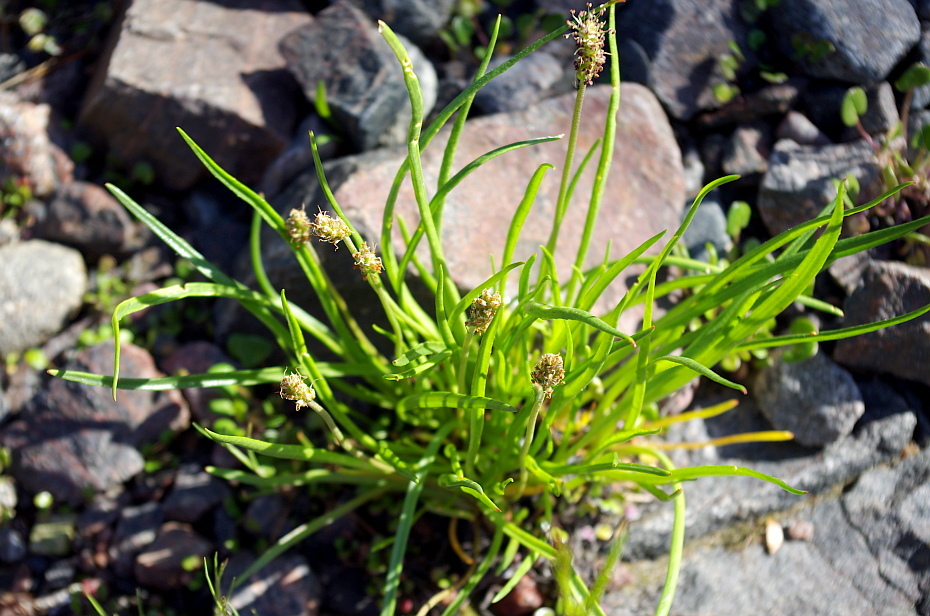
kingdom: Plantae
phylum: Tracheophyta
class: Magnoliopsida
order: Lamiales
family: Plantaginaceae
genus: Plantago
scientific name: Plantago maritima
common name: Sea plantain
